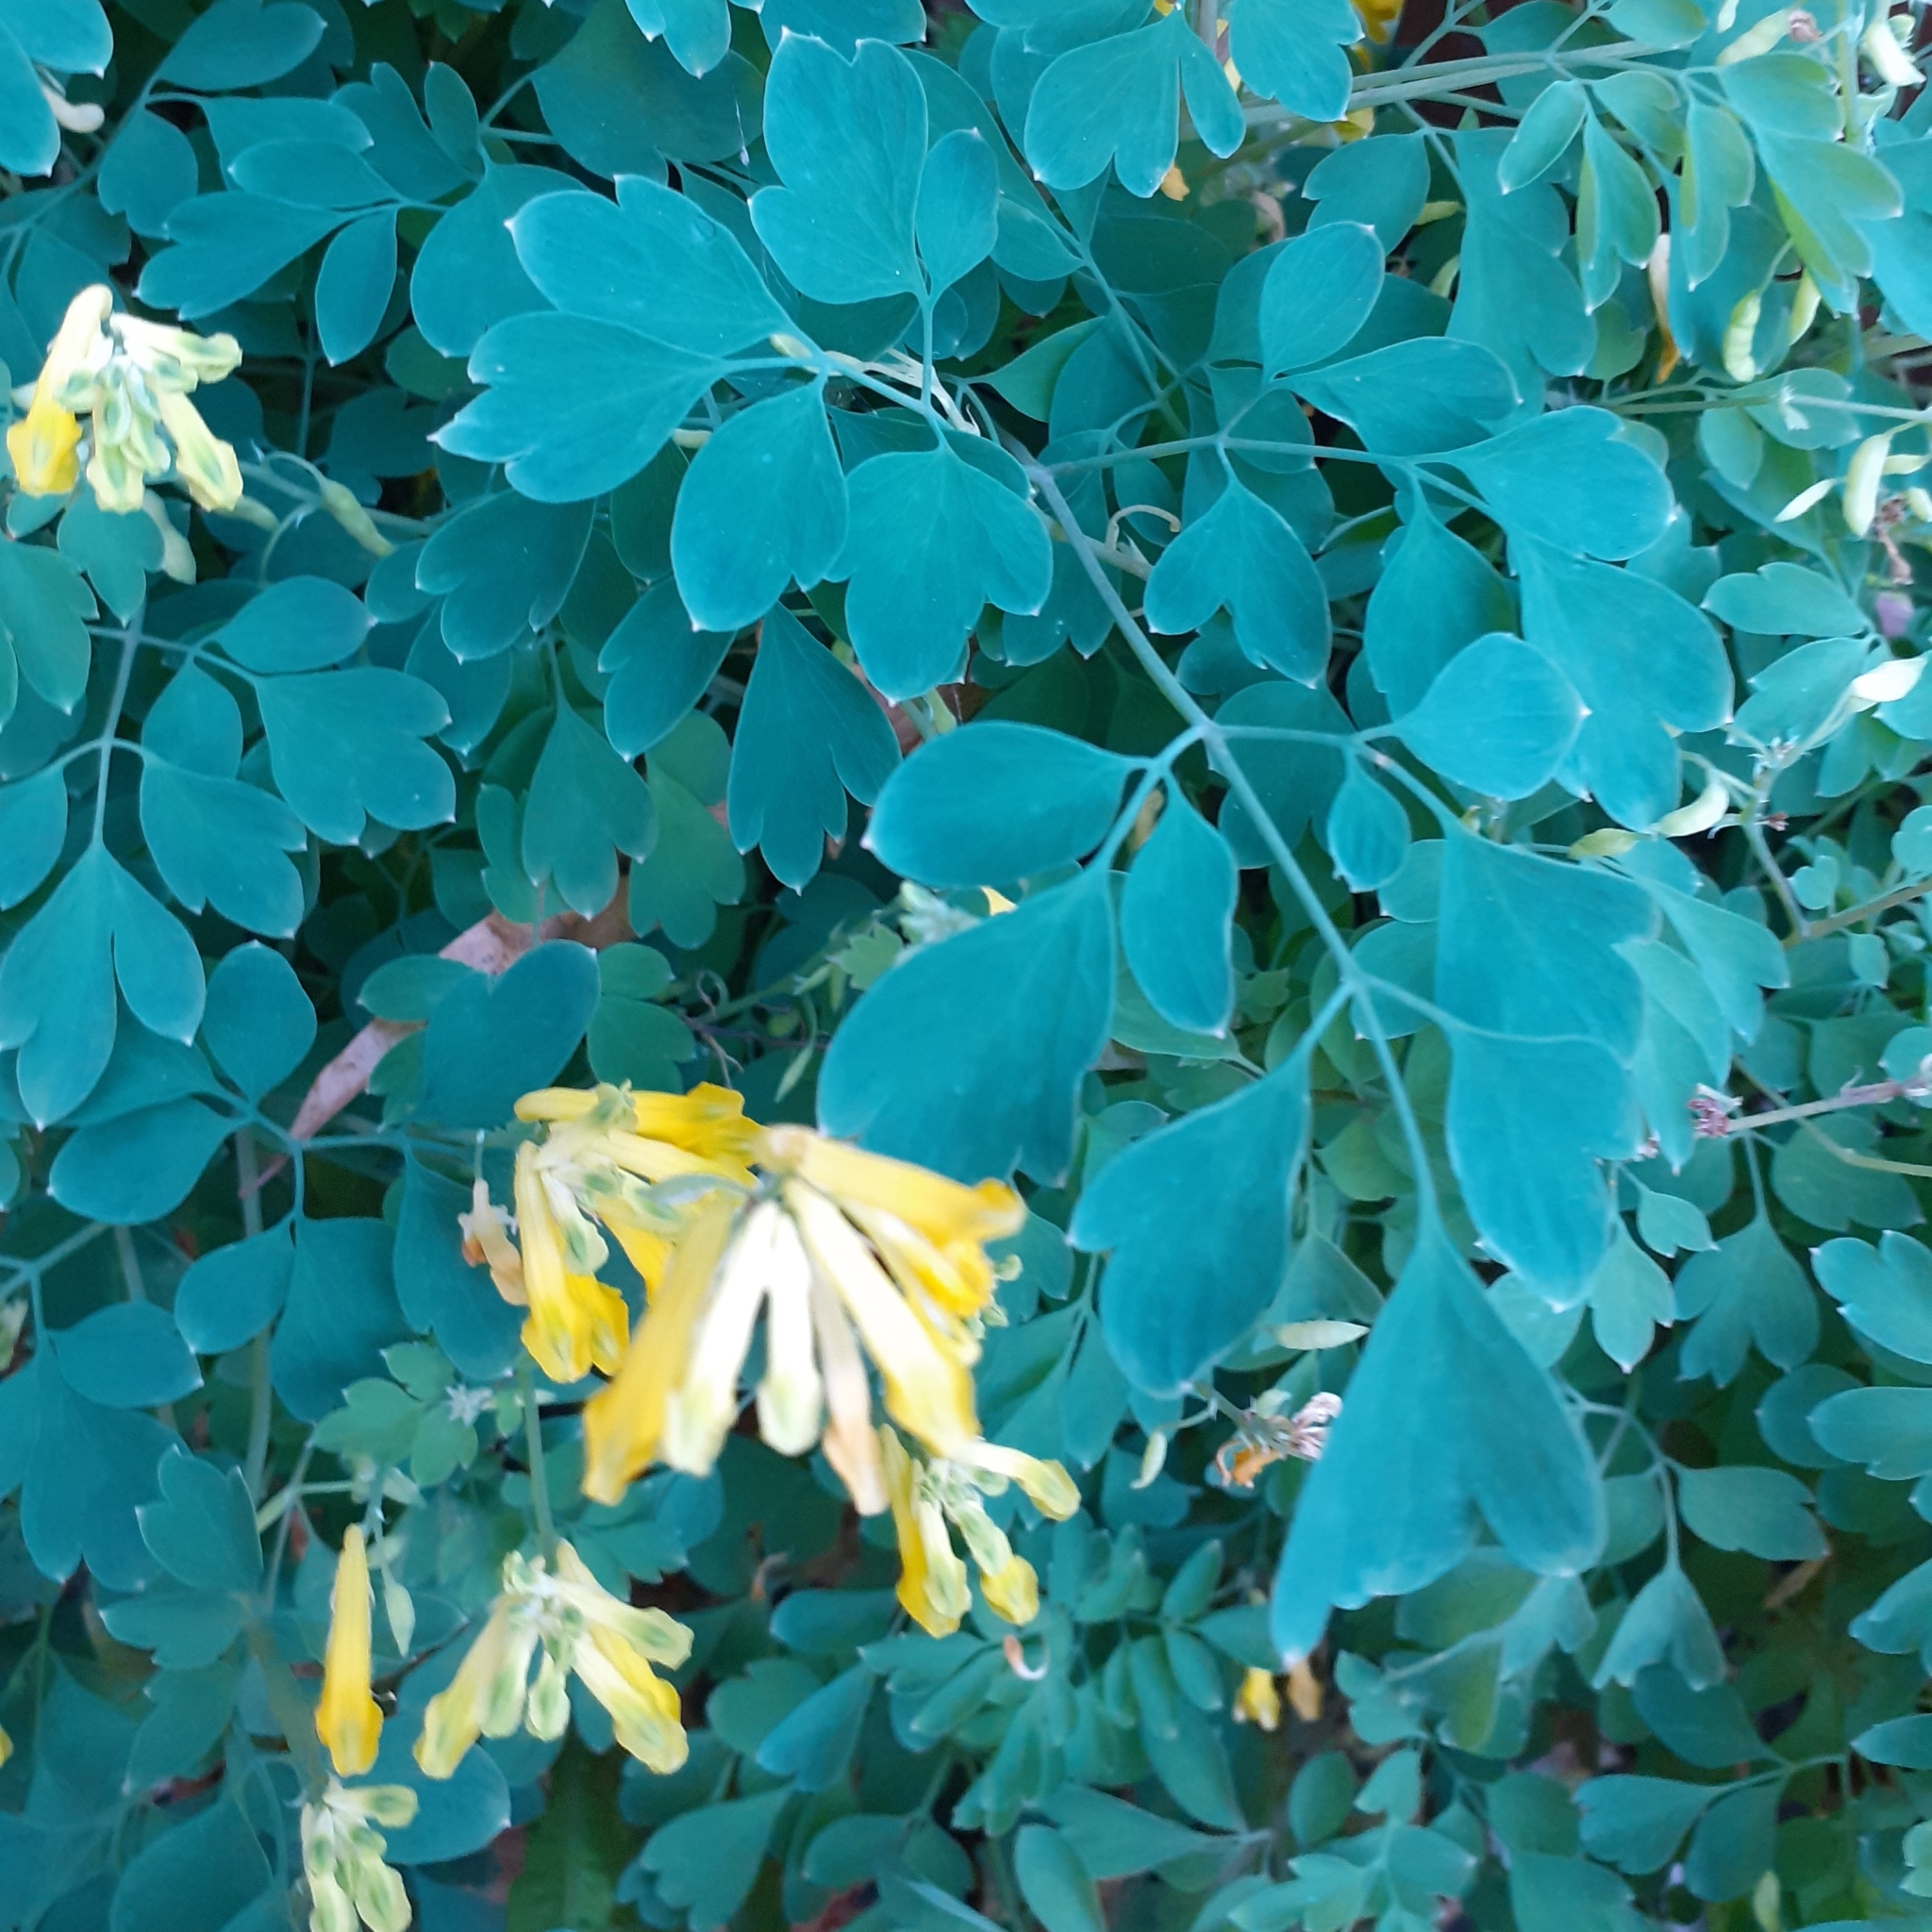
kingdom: Plantae
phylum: Tracheophyta
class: Magnoliopsida
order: Ranunculales
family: Papaveraceae
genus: Pseudofumaria
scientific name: Pseudofumaria lutea
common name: Yellow corydalis
